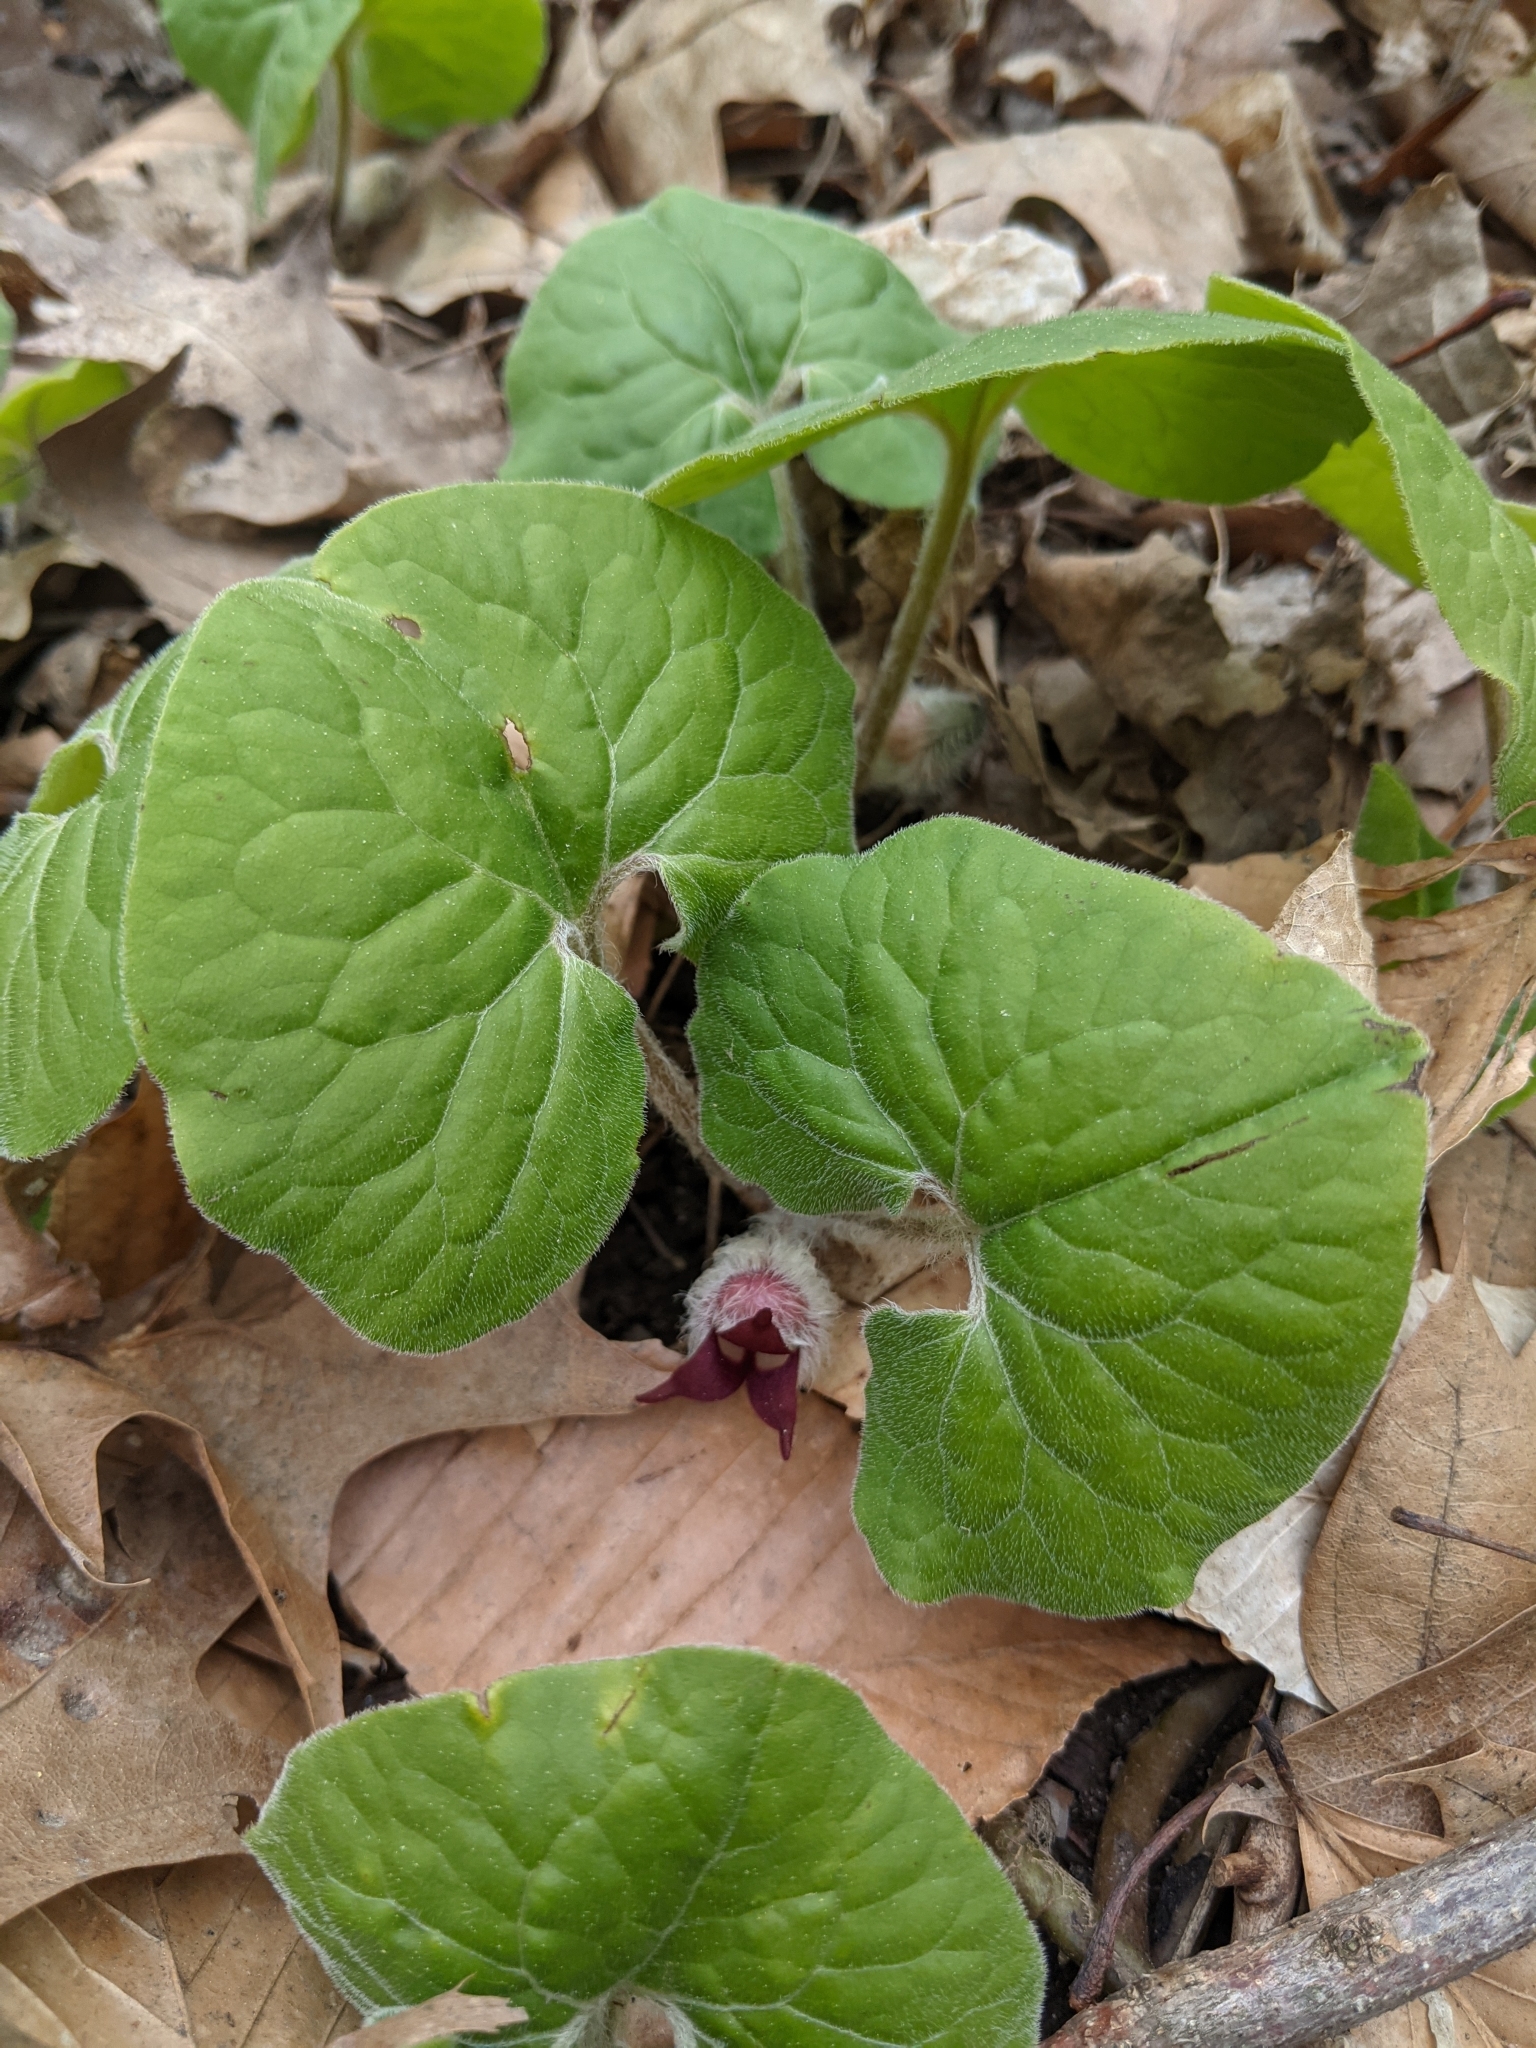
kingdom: Plantae
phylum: Tracheophyta
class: Magnoliopsida
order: Piperales
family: Aristolochiaceae
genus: Asarum
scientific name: Asarum canadense
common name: Wild ginger
